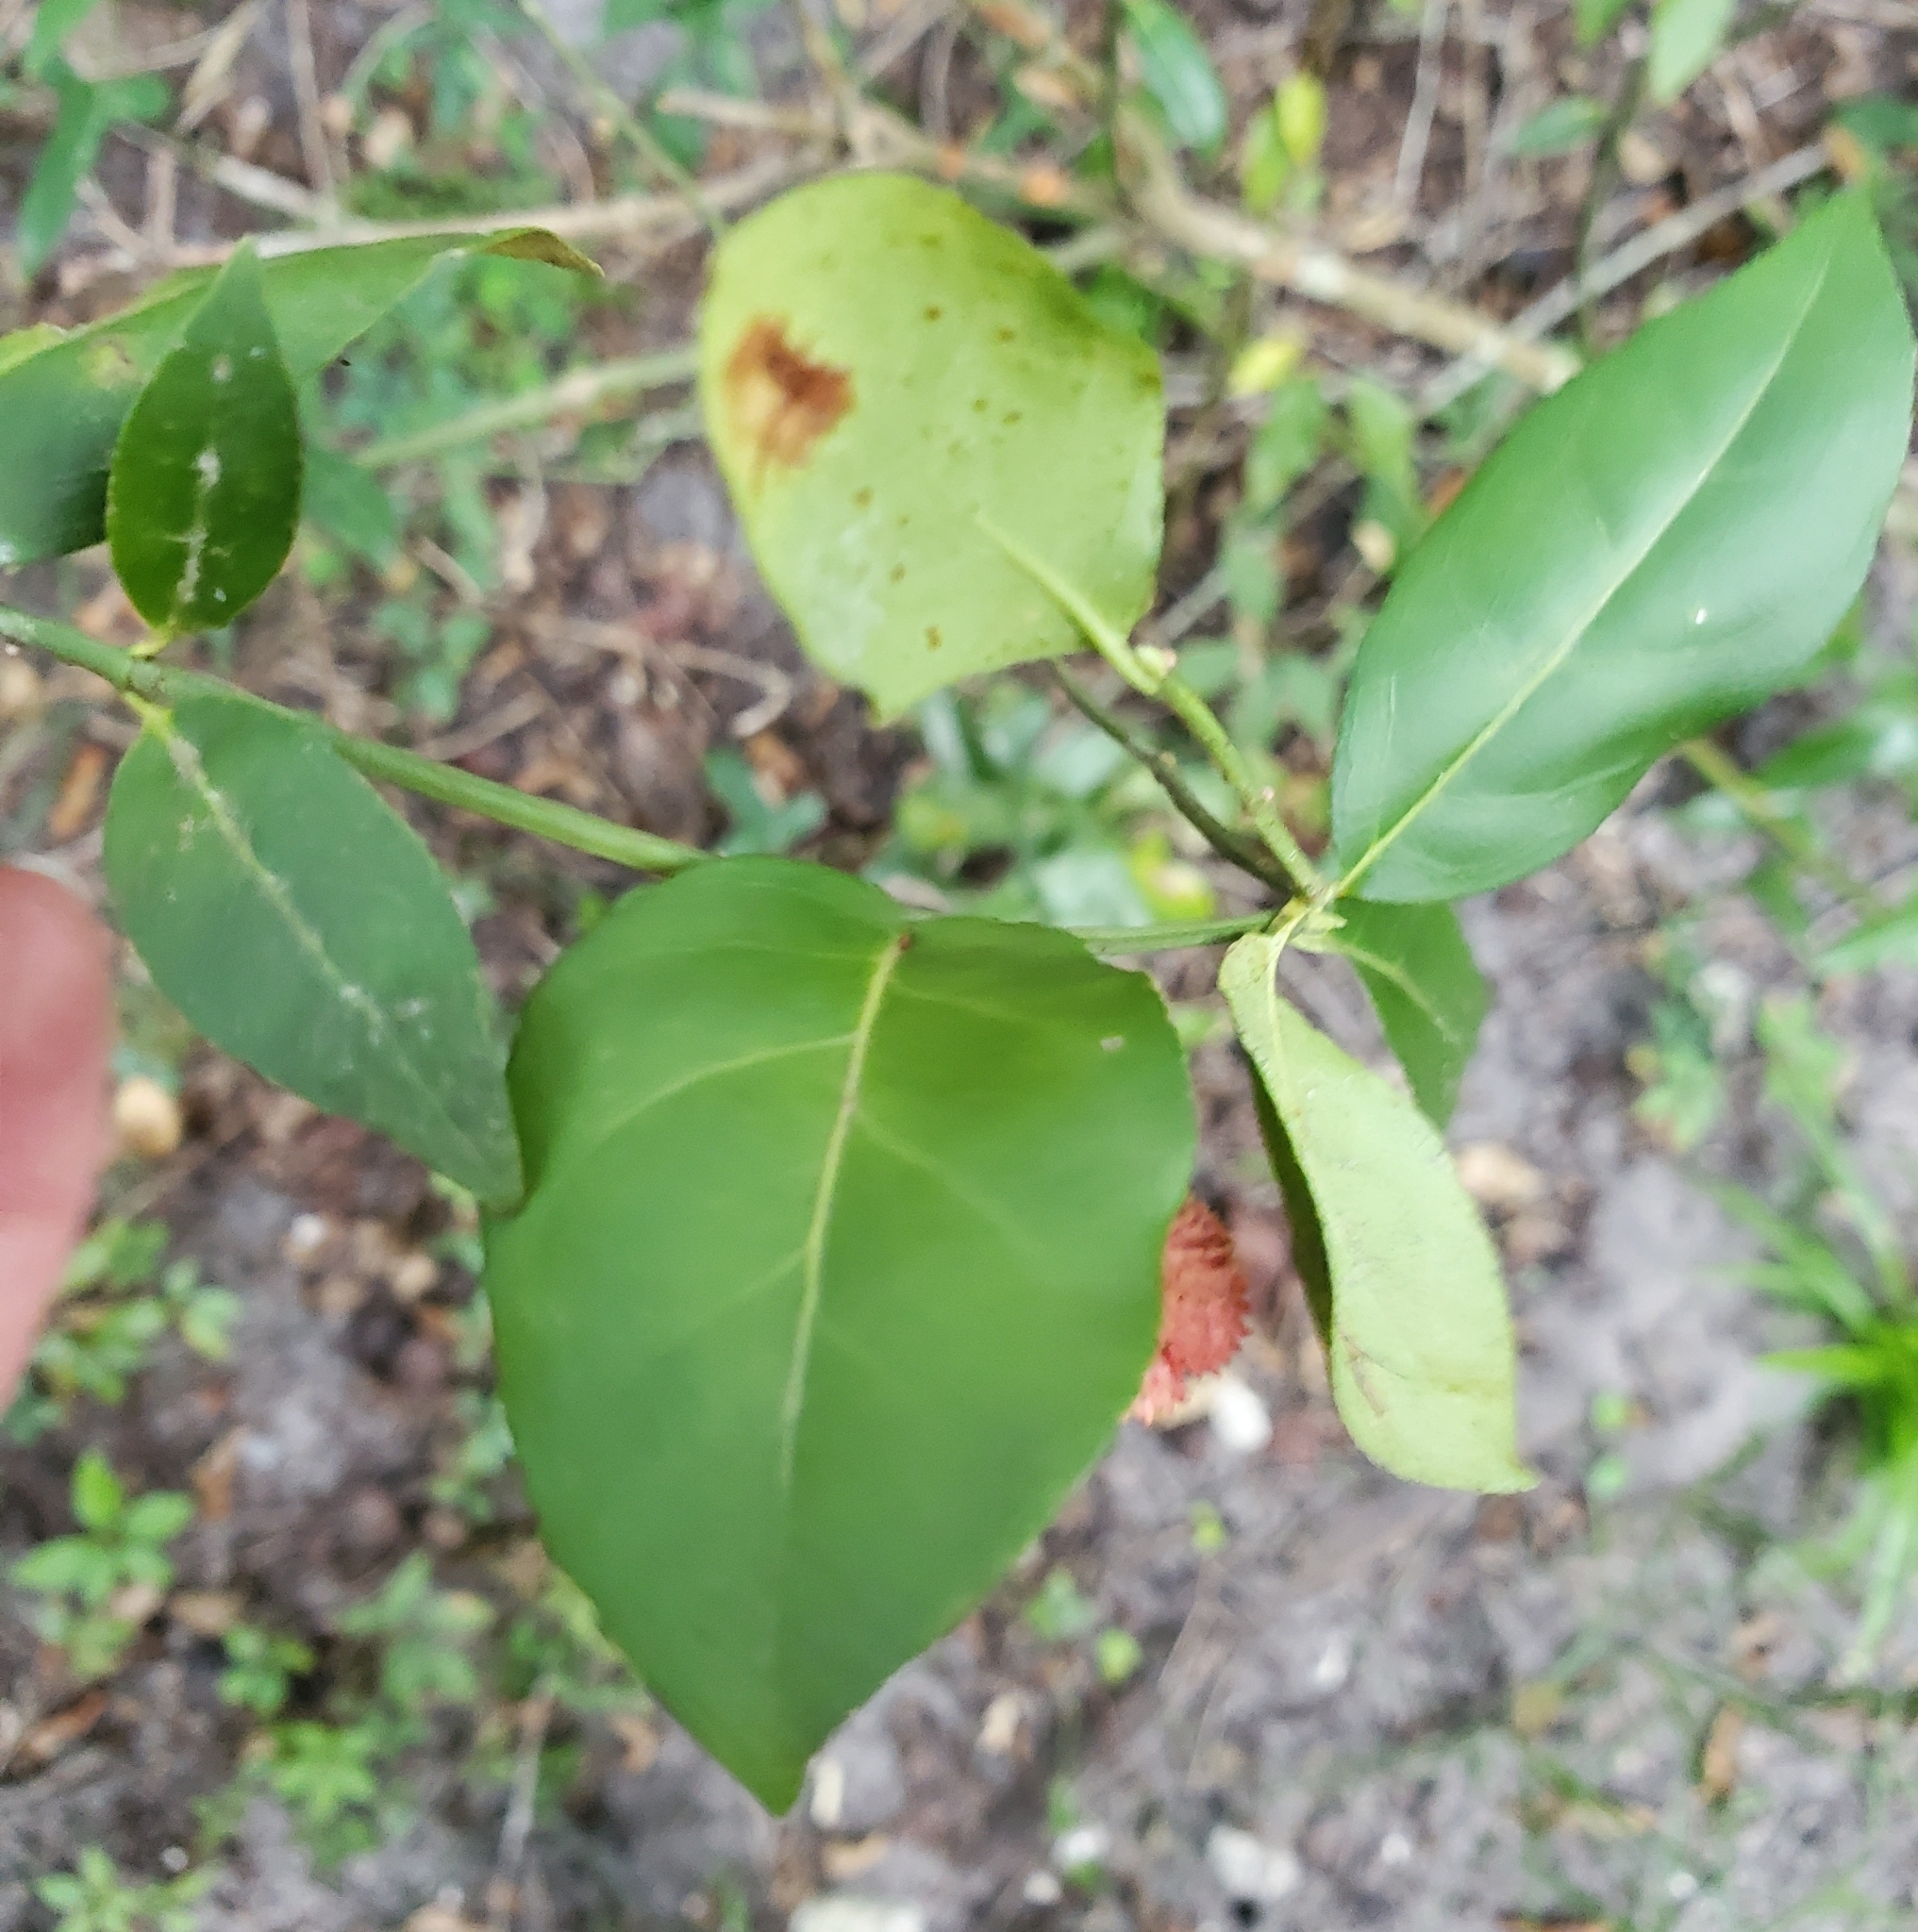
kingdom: Plantae
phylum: Tracheophyta
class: Magnoliopsida
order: Celastrales
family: Celastraceae
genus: Euonymus
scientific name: Euonymus americanus
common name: Bursting-heart
